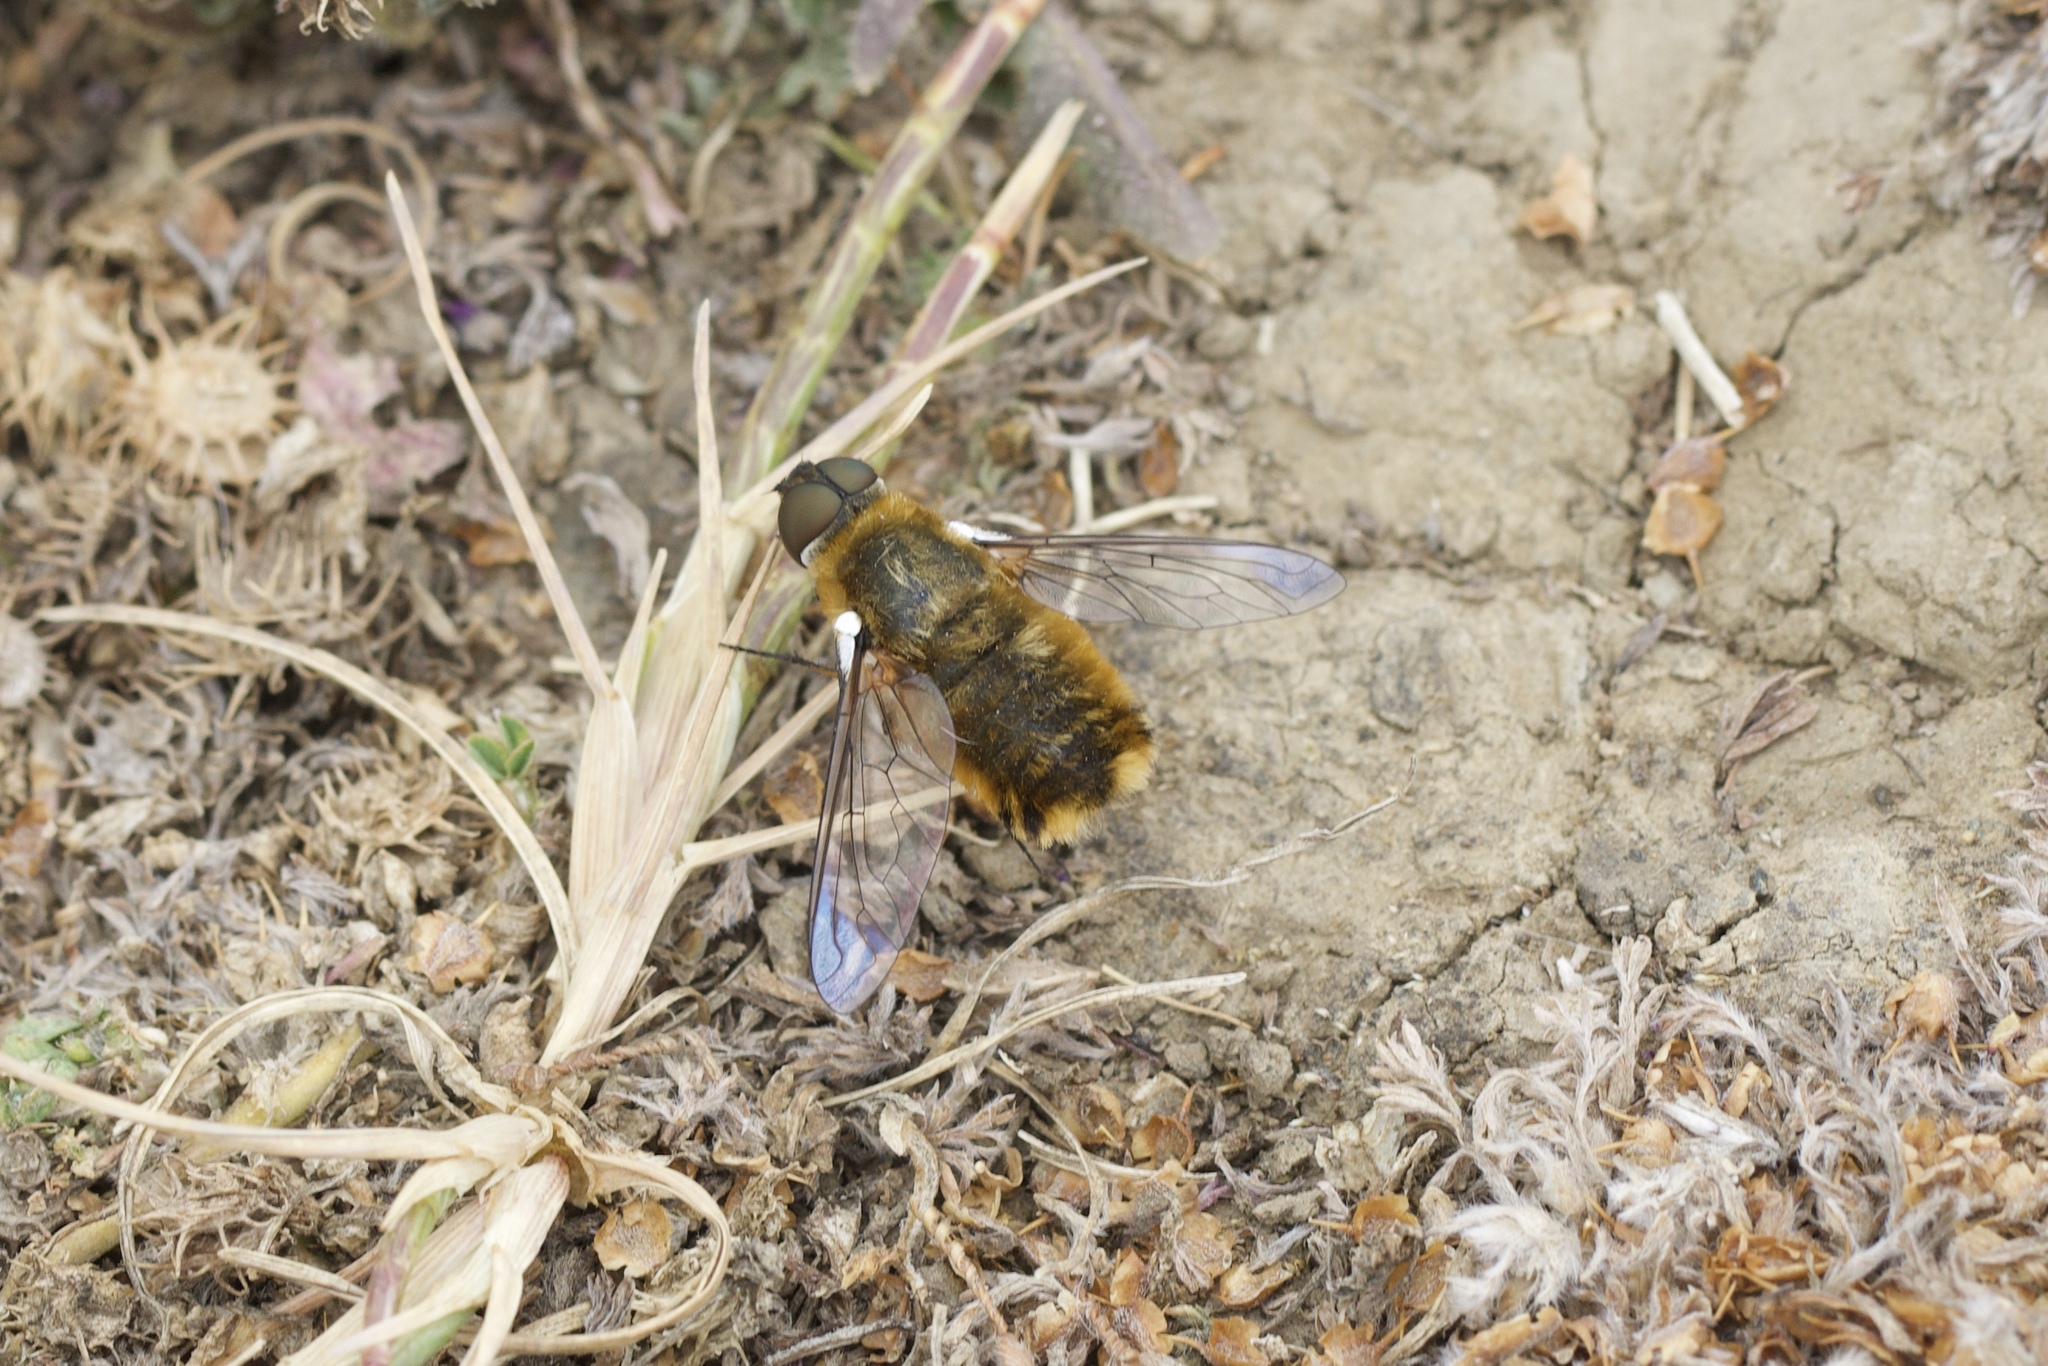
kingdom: Animalia
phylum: Arthropoda
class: Insecta
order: Diptera
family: Bombyliidae
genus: Villa
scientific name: Villa agrippina
